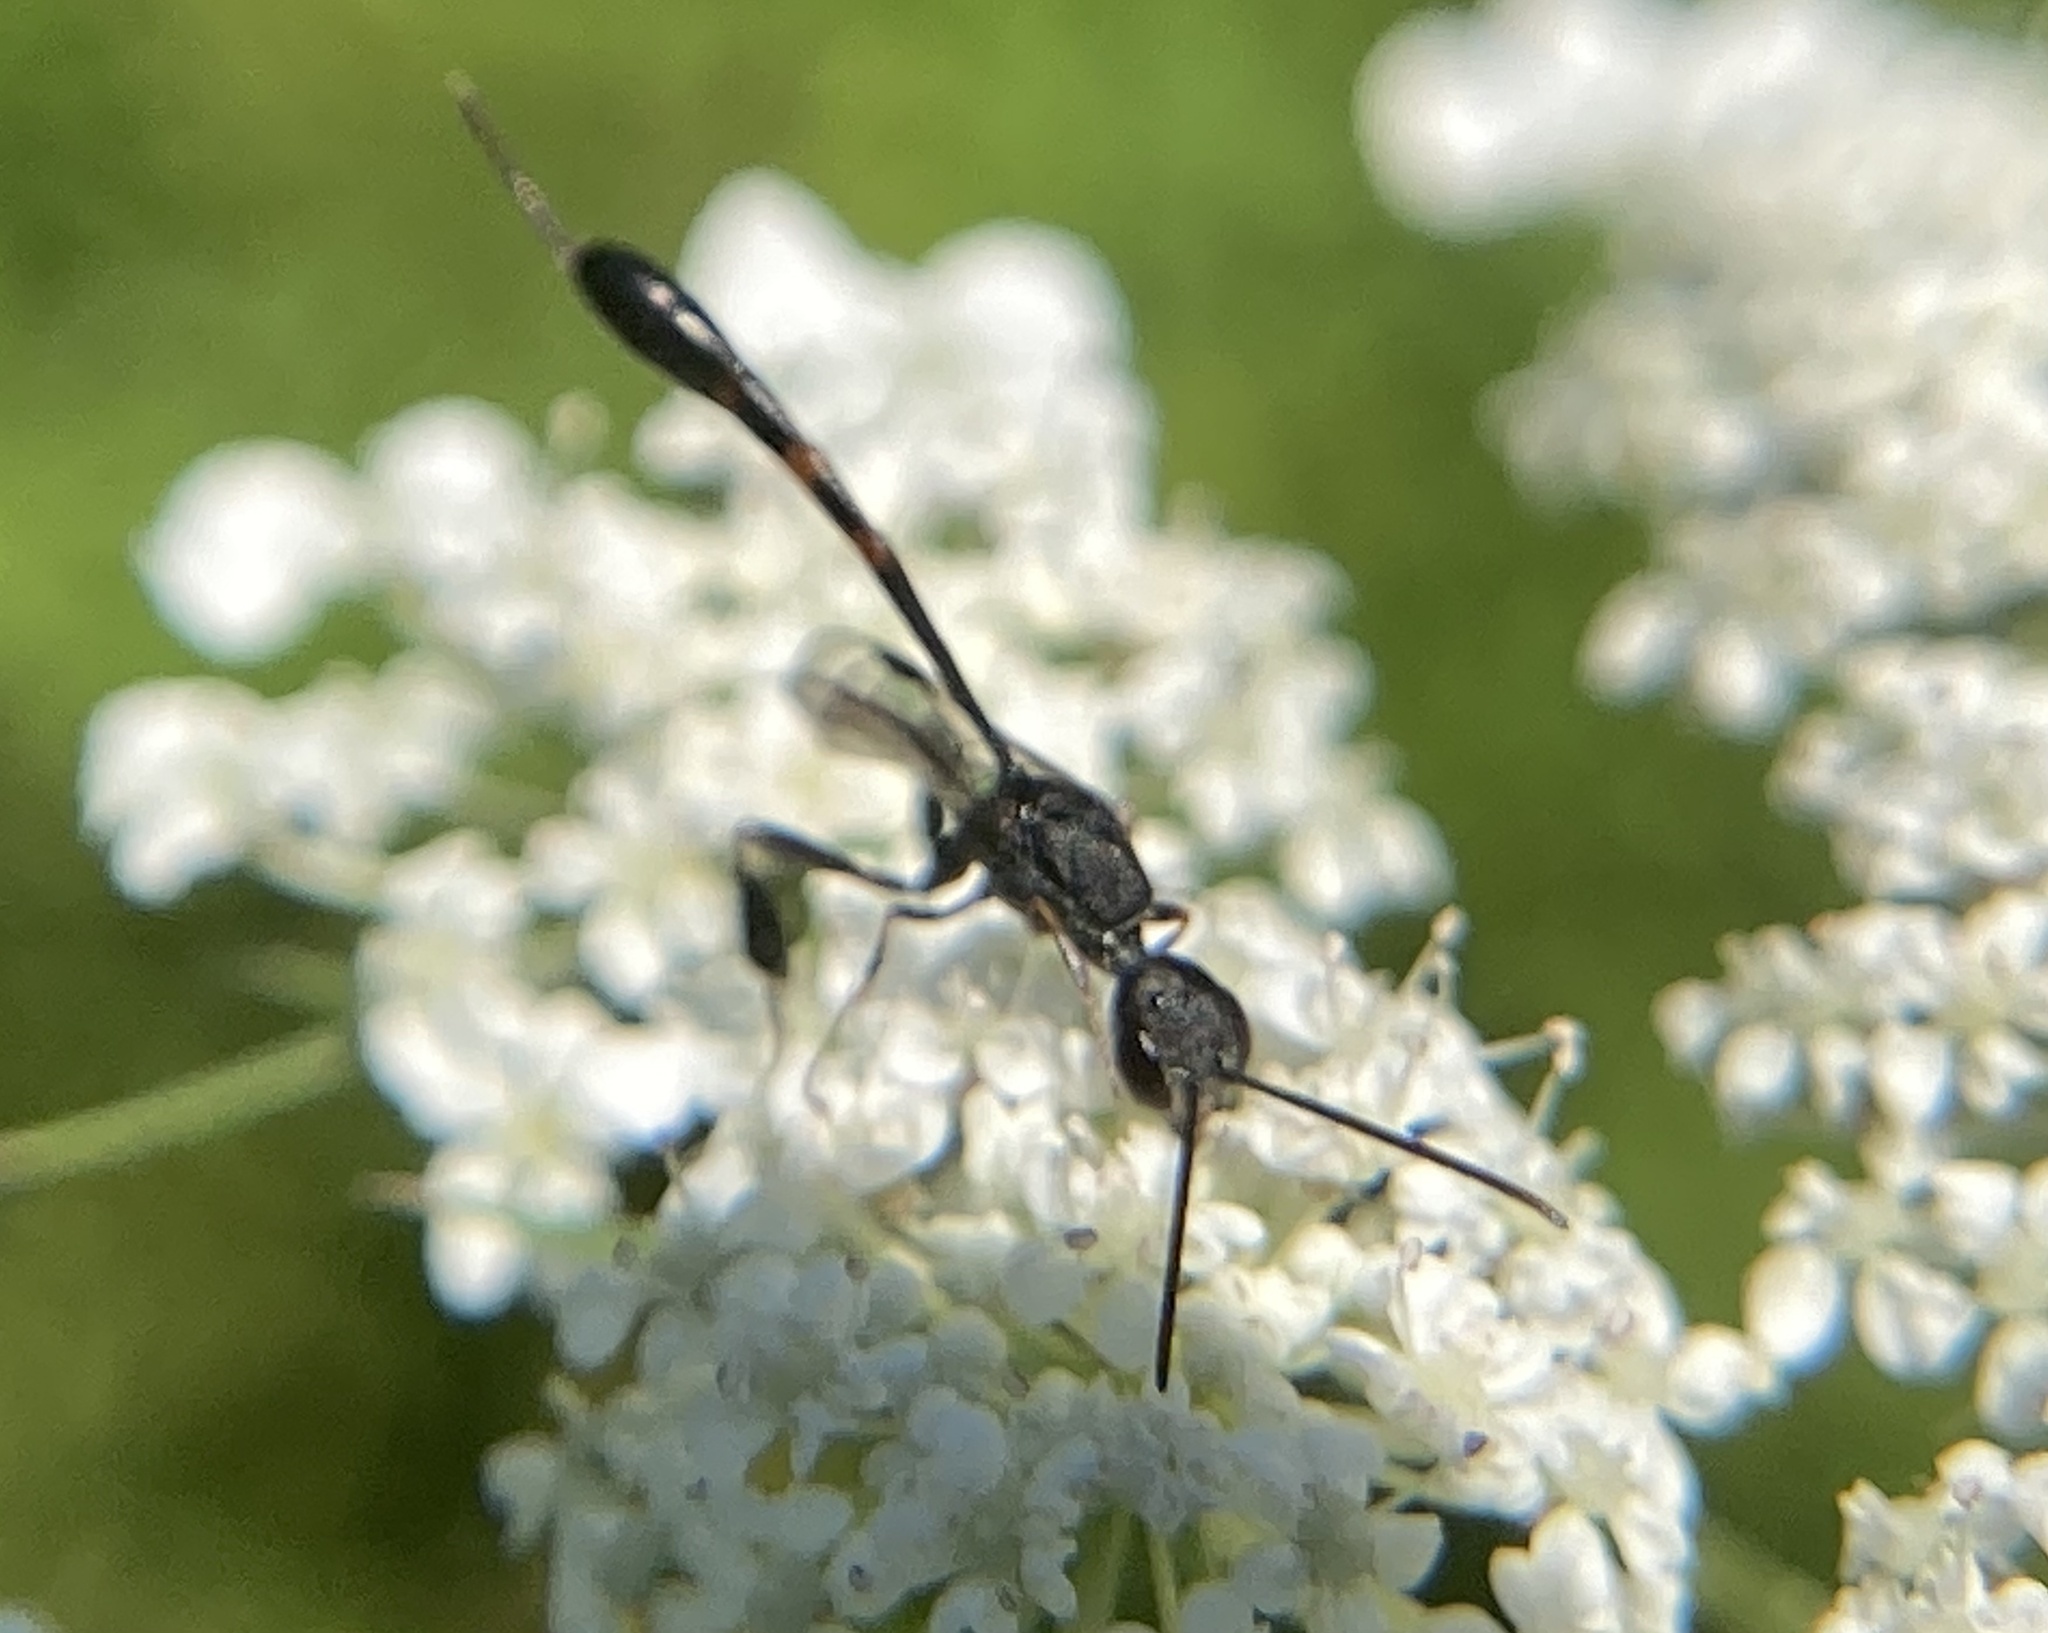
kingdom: Animalia
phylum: Arthropoda
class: Insecta
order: Hymenoptera
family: Gasteruptiidae
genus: Gasteruption
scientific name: Gasteruption
